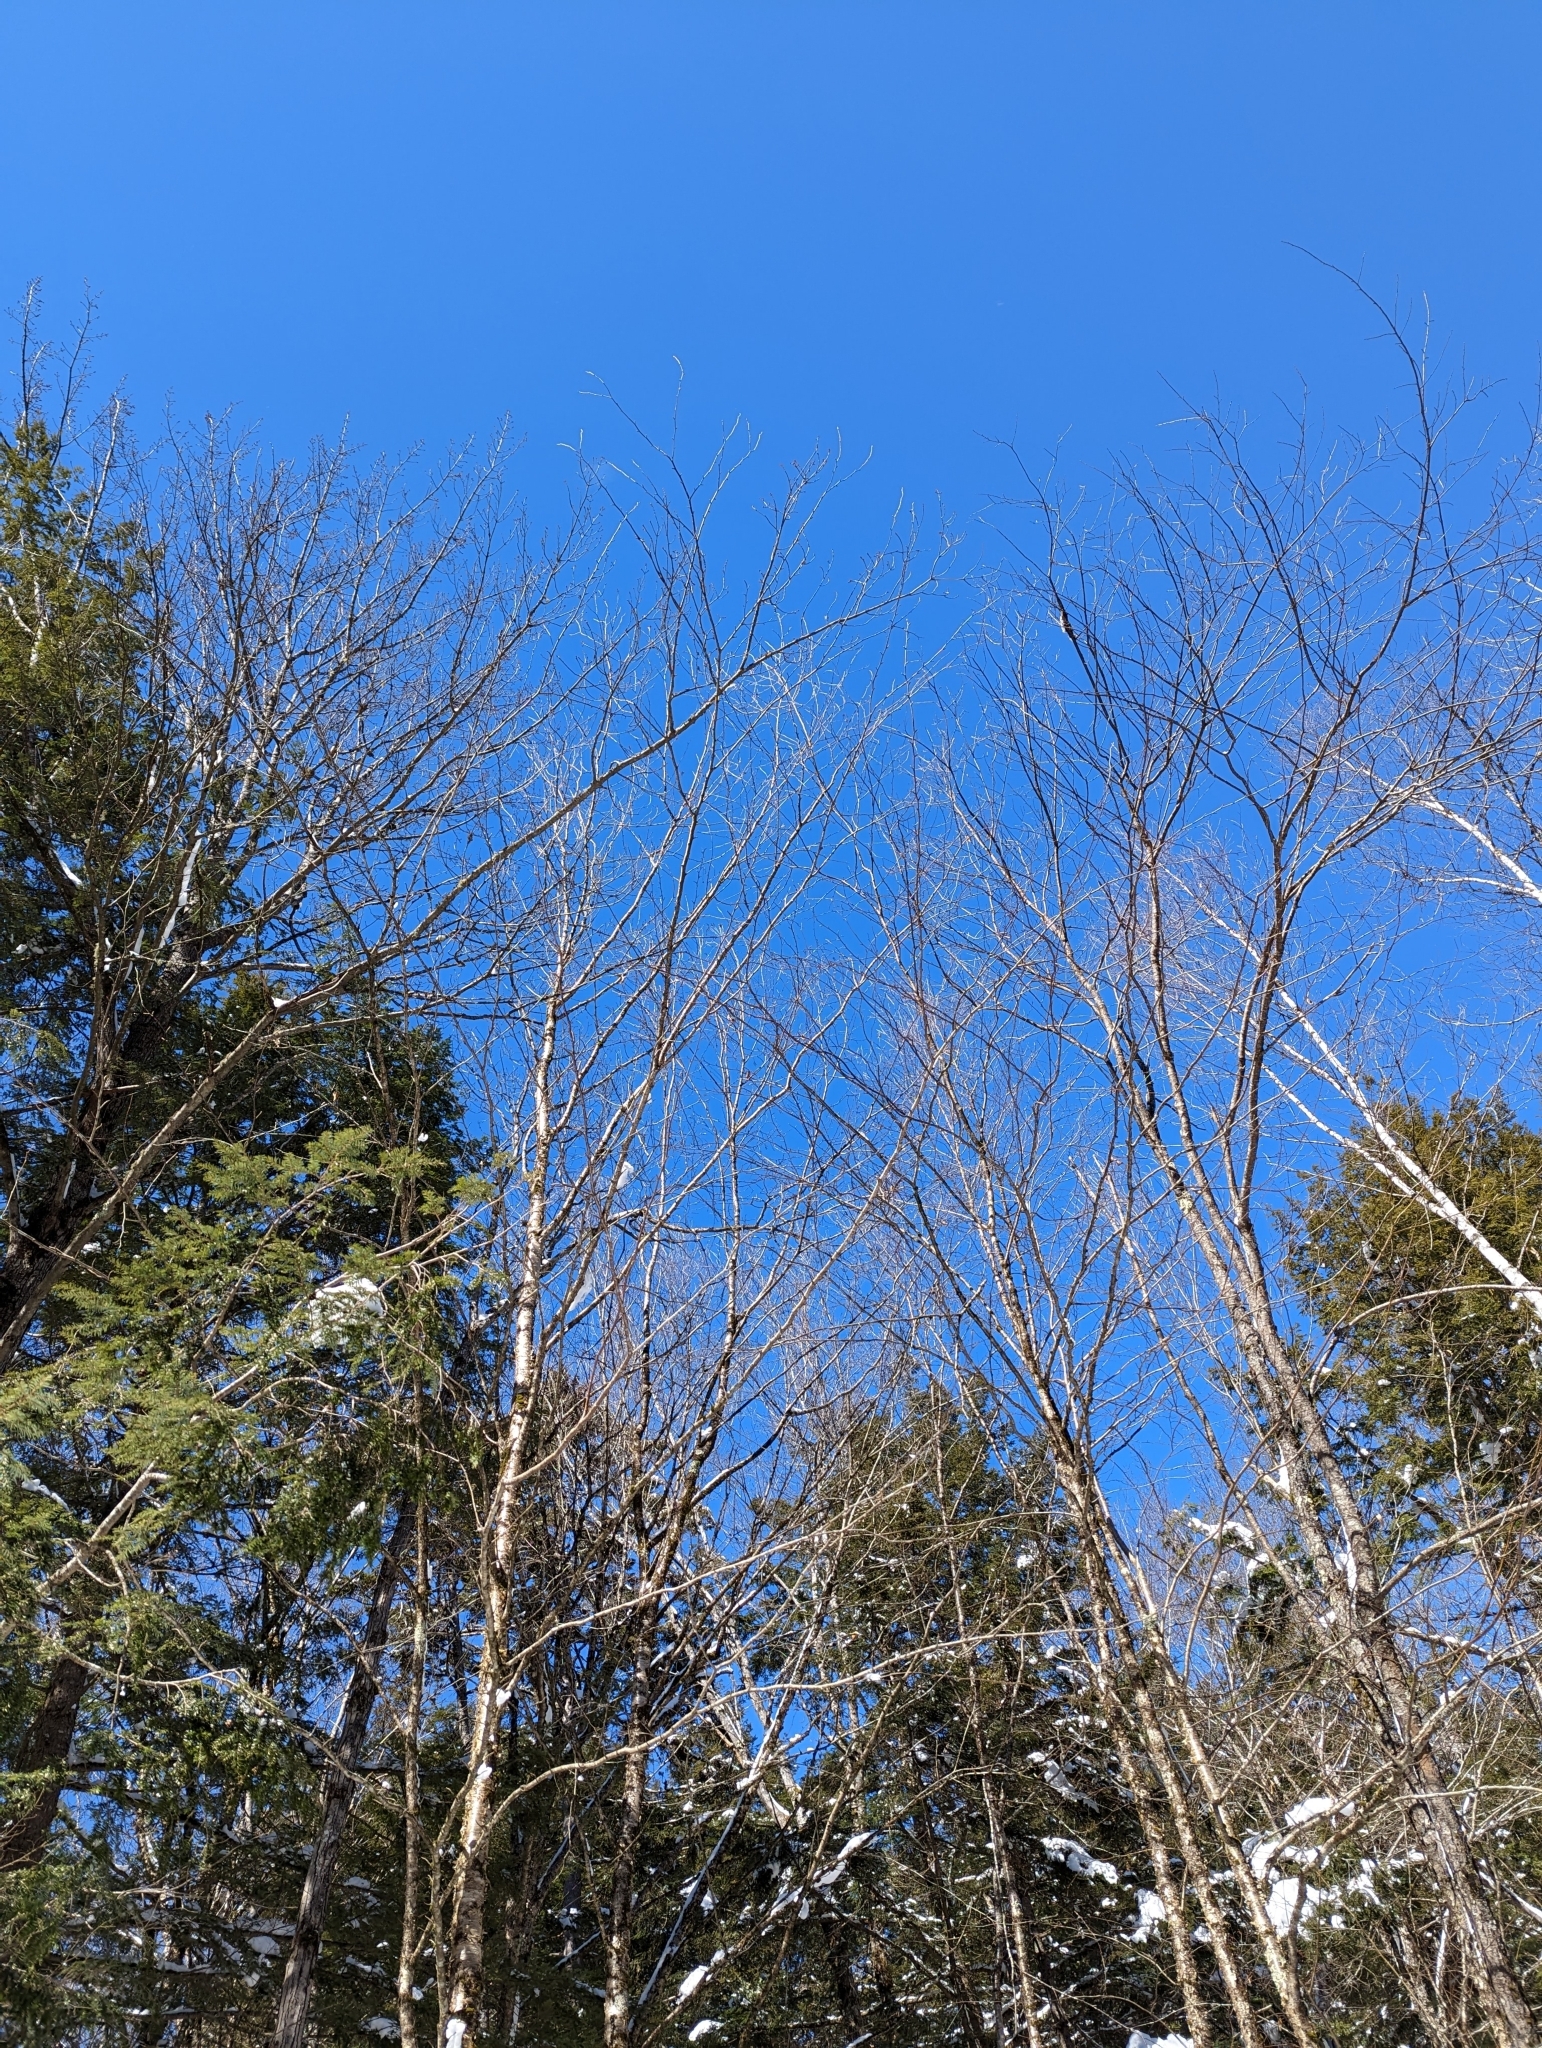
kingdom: Plantae
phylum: Tracheophyta
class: Magnoliopsida
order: Fagales
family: Betulaceae
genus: Betula
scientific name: Betula alleghaniensis
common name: Yellow birch
